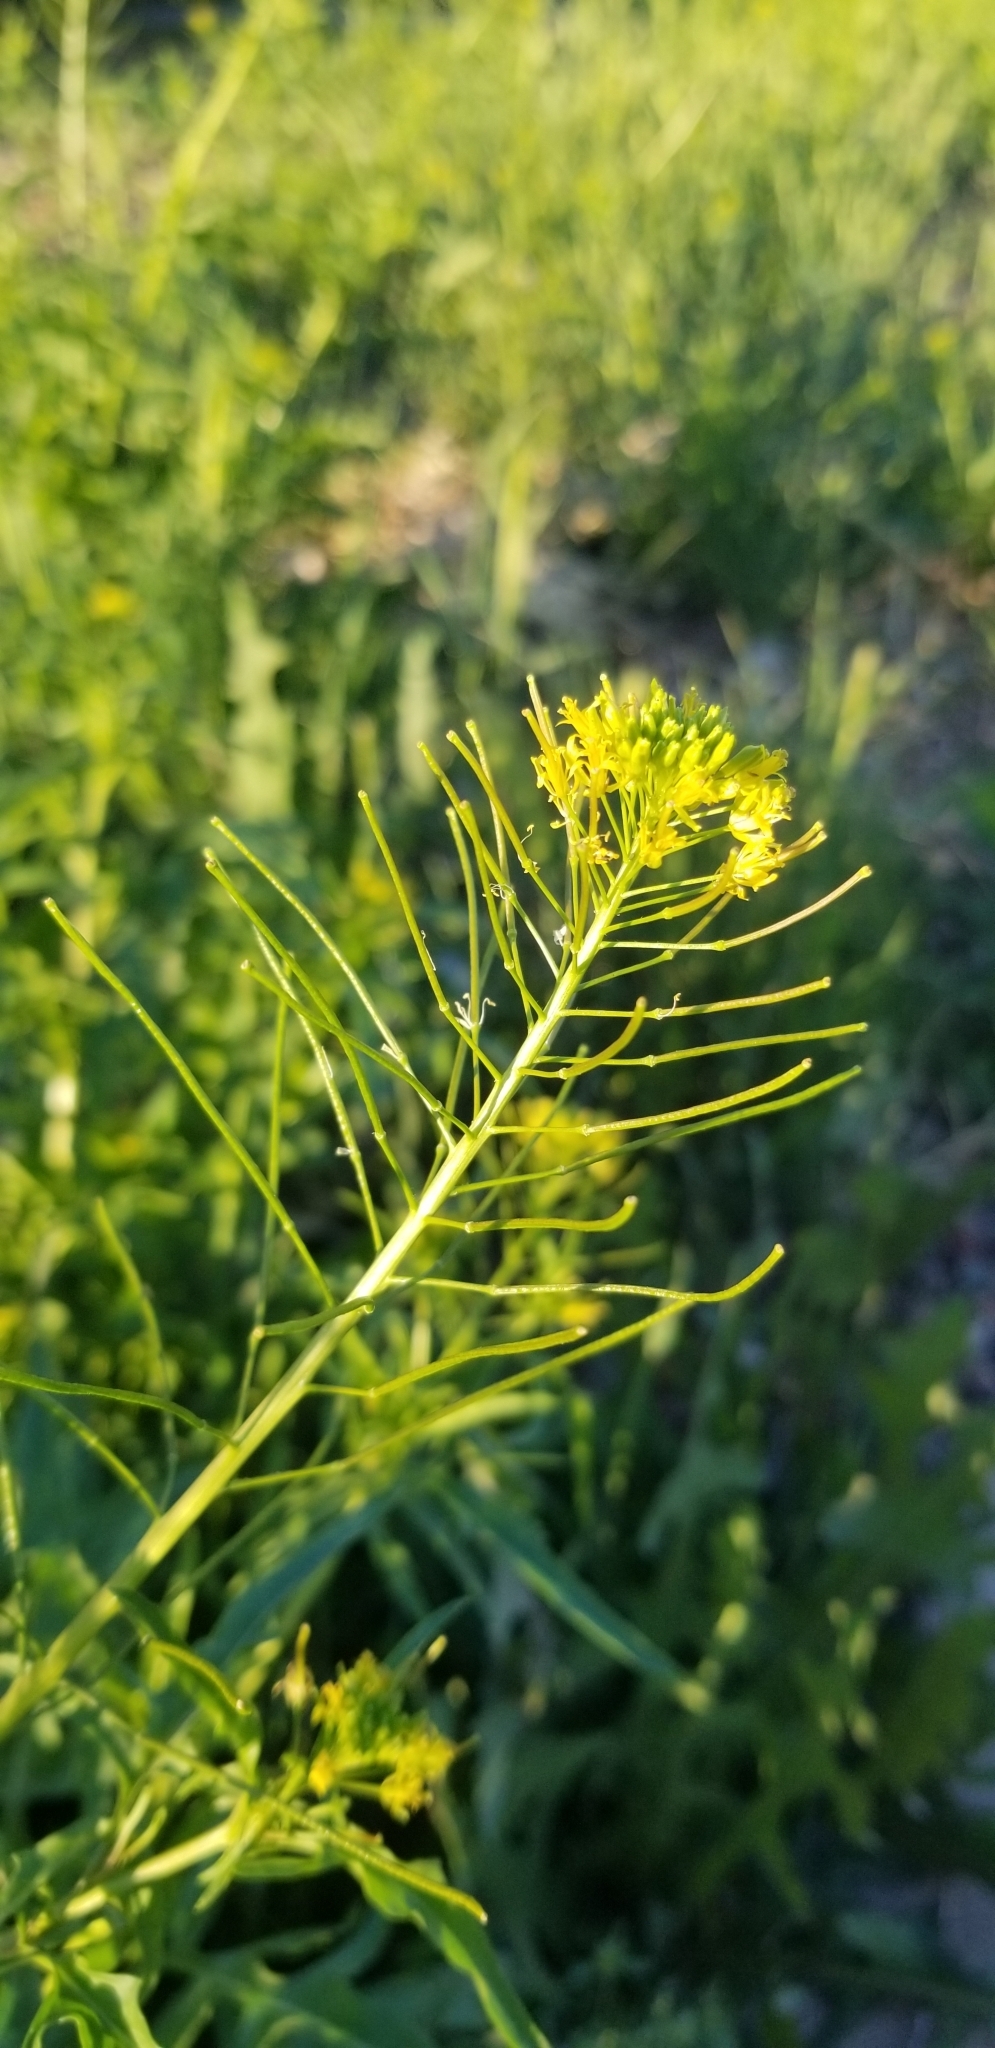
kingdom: Plantae
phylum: Tracheophyta
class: Magnoliopsida
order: Brassicales
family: Brassicaceae
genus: Sisymbrium
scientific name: Sisymbrium irio
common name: London rocket
